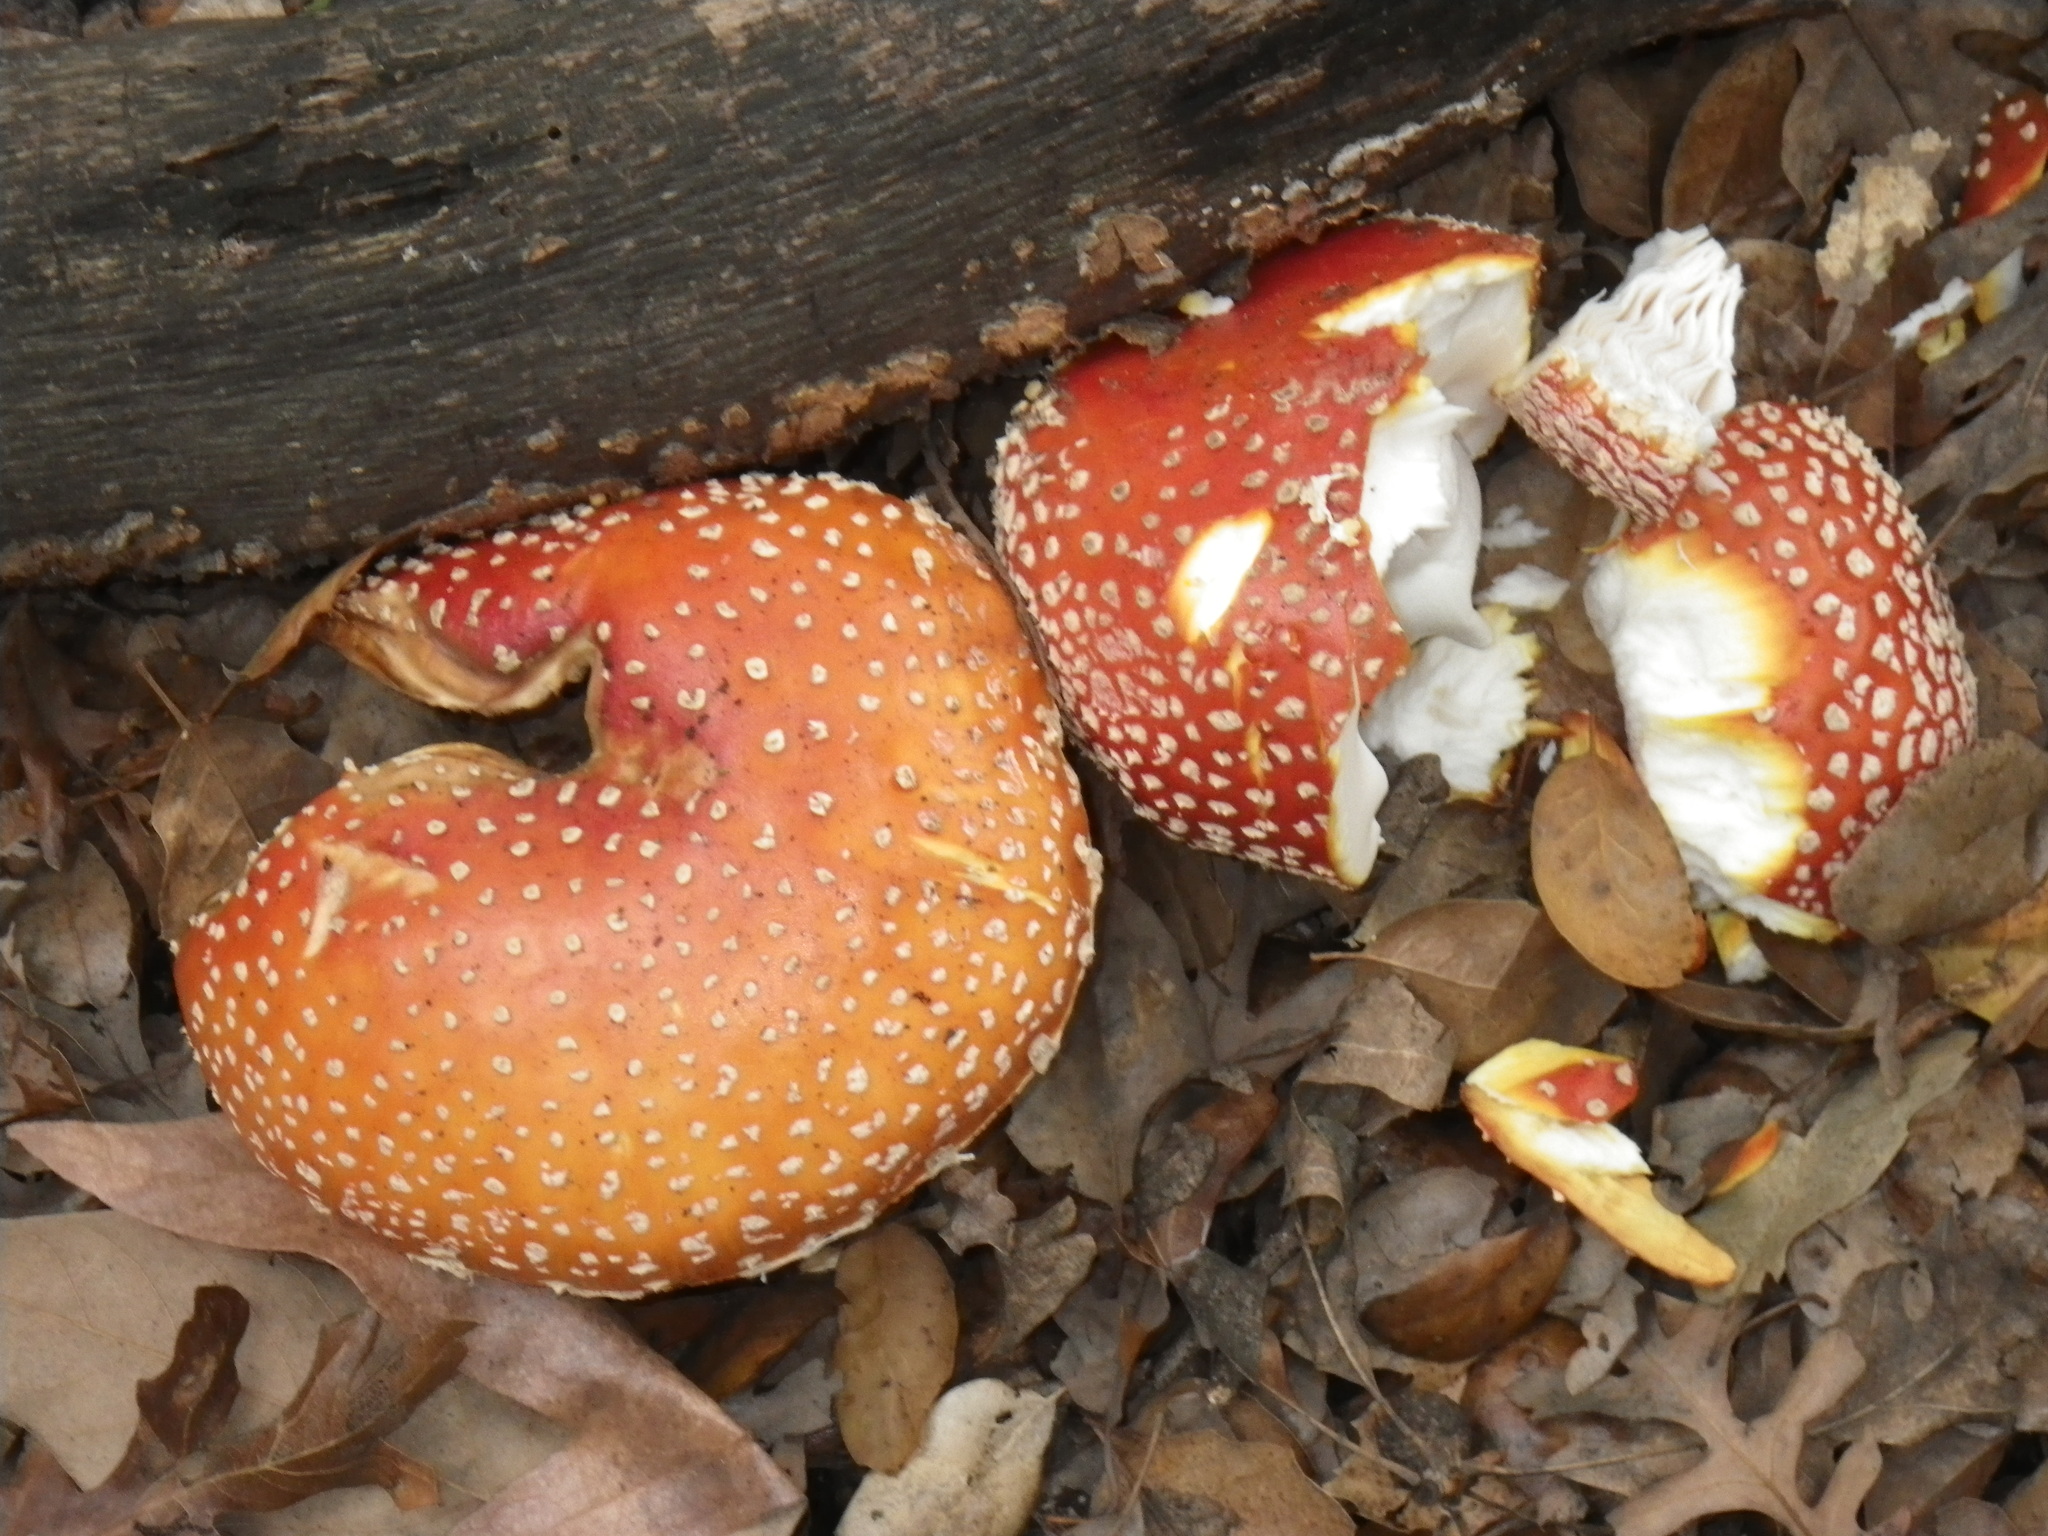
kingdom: Fungi
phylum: Basidiomycota
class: Agaricomycetes
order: Agaricales
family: Amanitaceae
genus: Amanita
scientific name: Amanita muscaria
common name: Fly agaric
